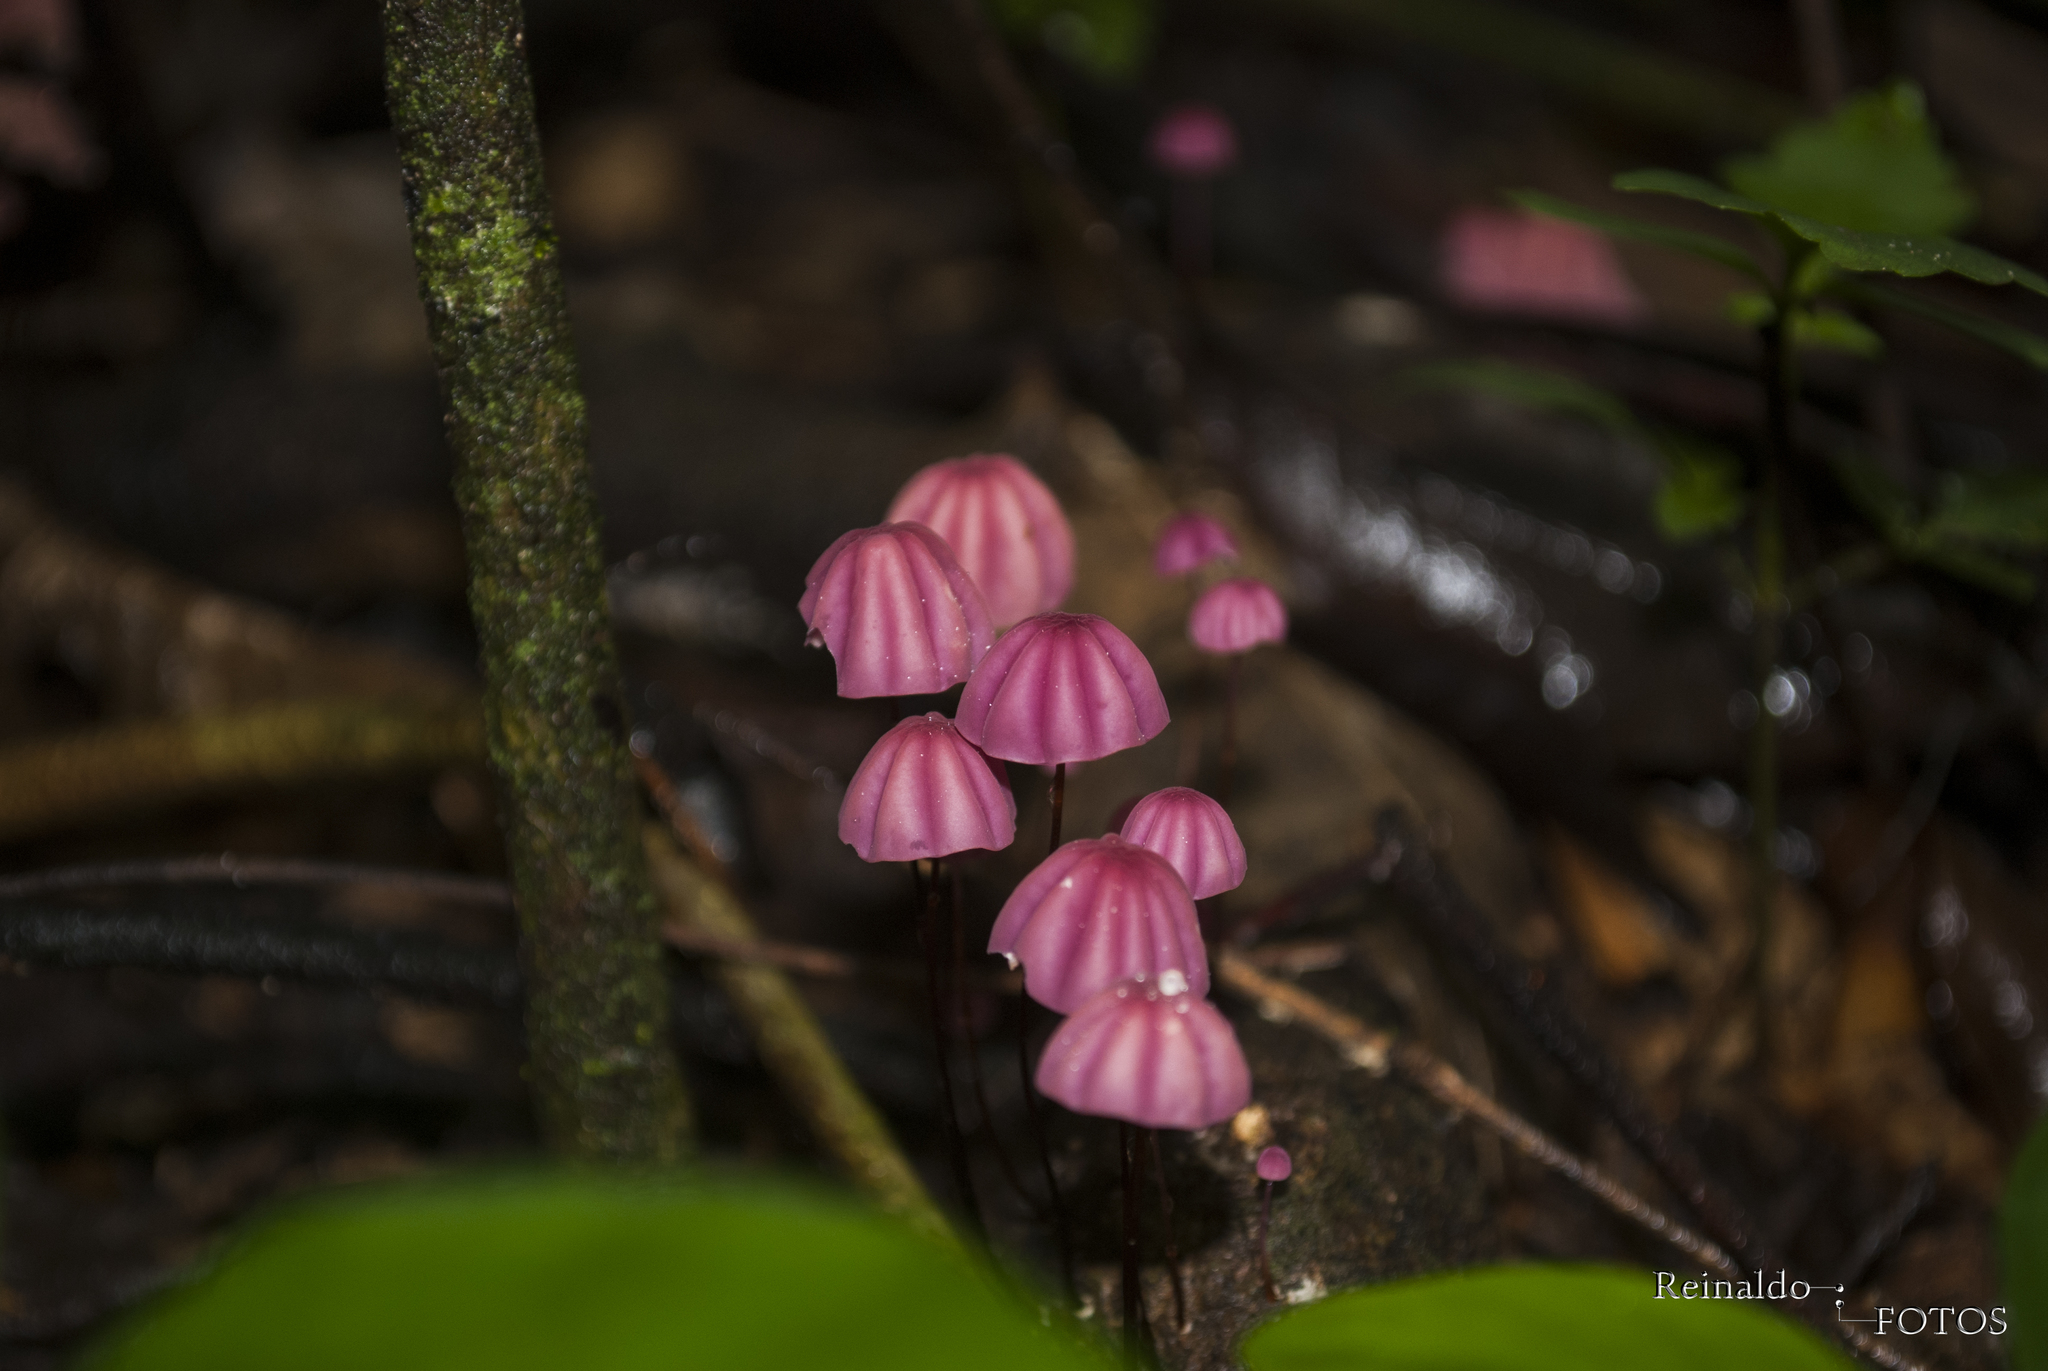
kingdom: Fungi
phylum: Basidiomycota
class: Agaricomycetes
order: Agaricales
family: Marasmiaceae
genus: Marasmius
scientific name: Marasmius haematocephalus
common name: Purple pinwheel
